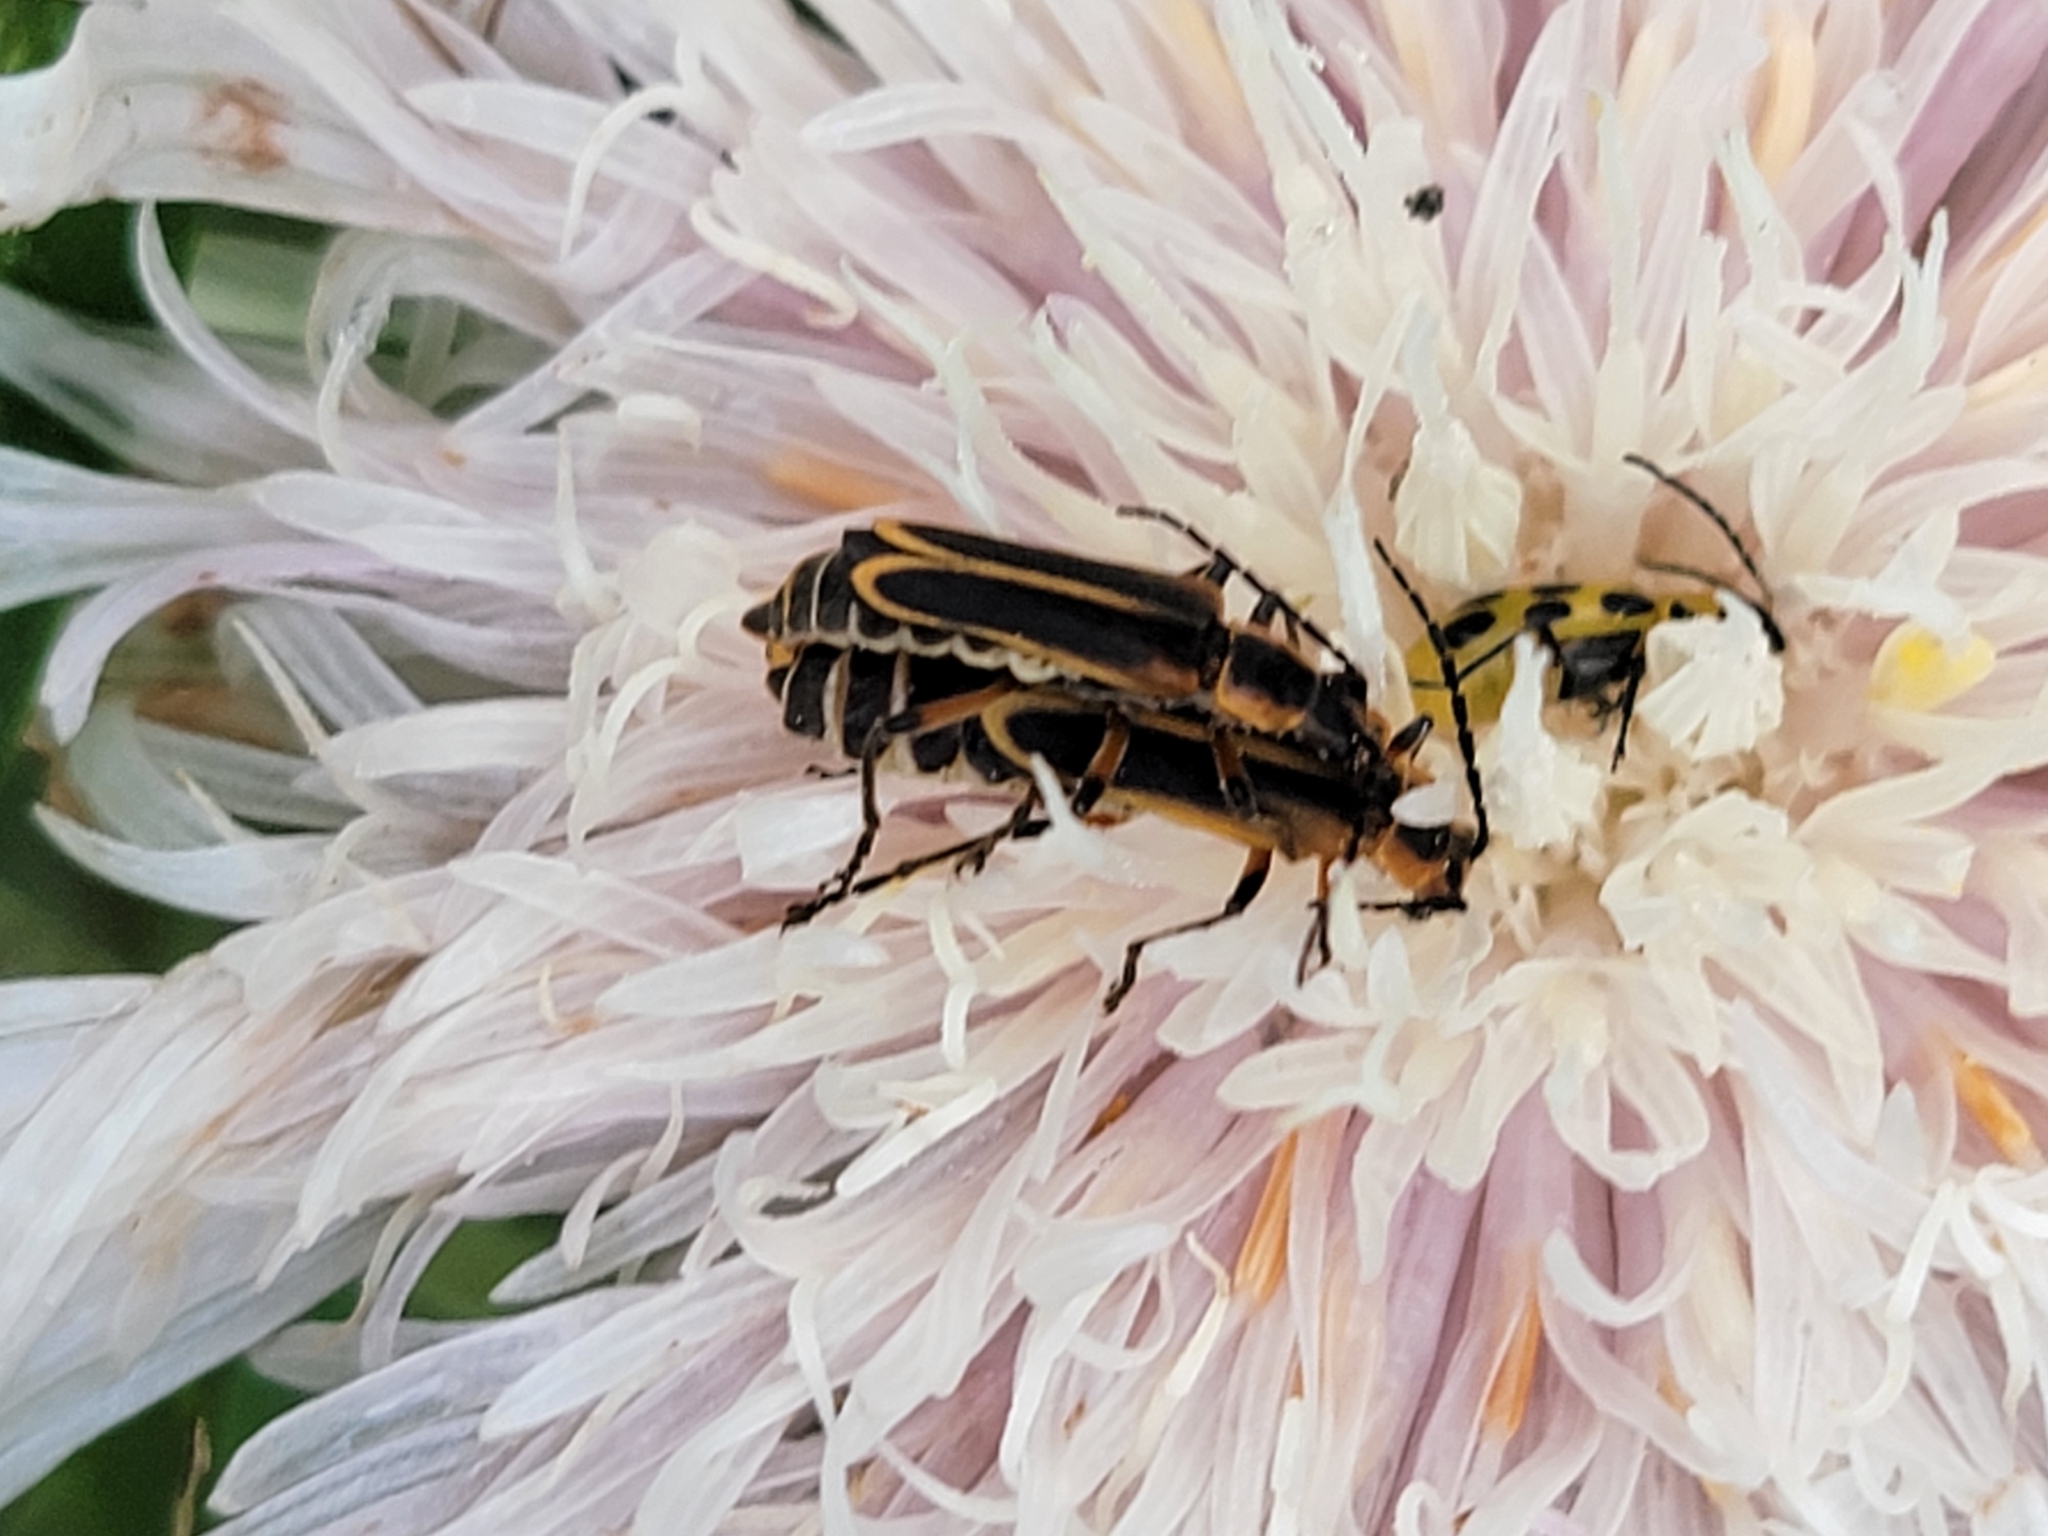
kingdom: Animalia
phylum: Arthropoda
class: Insecta
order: Coleoptera
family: Cantharidae
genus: Chauliognathus
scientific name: Chauliognathus marginatus
